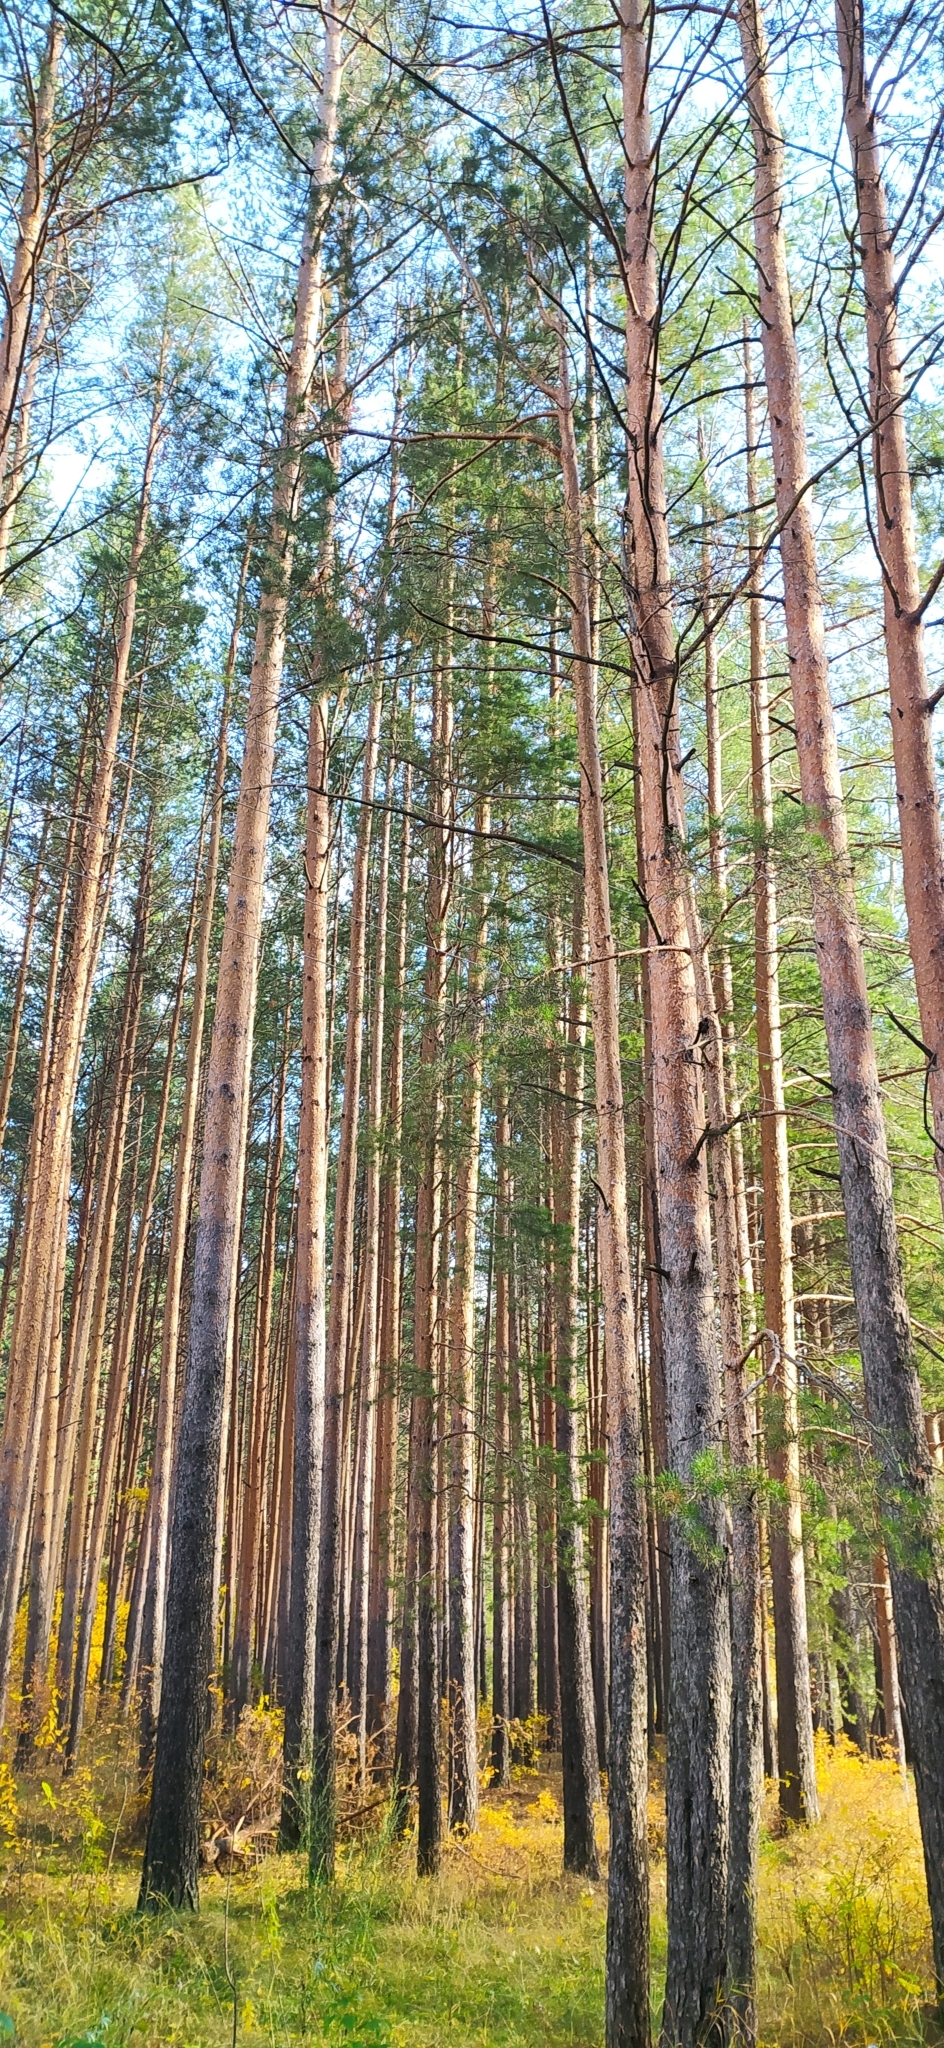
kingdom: Plantae
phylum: Tracheophyta
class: Pinopsida
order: Pinales
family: Pinaceae
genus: Pinus
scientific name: Pinus sylvestris
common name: Scots pine
